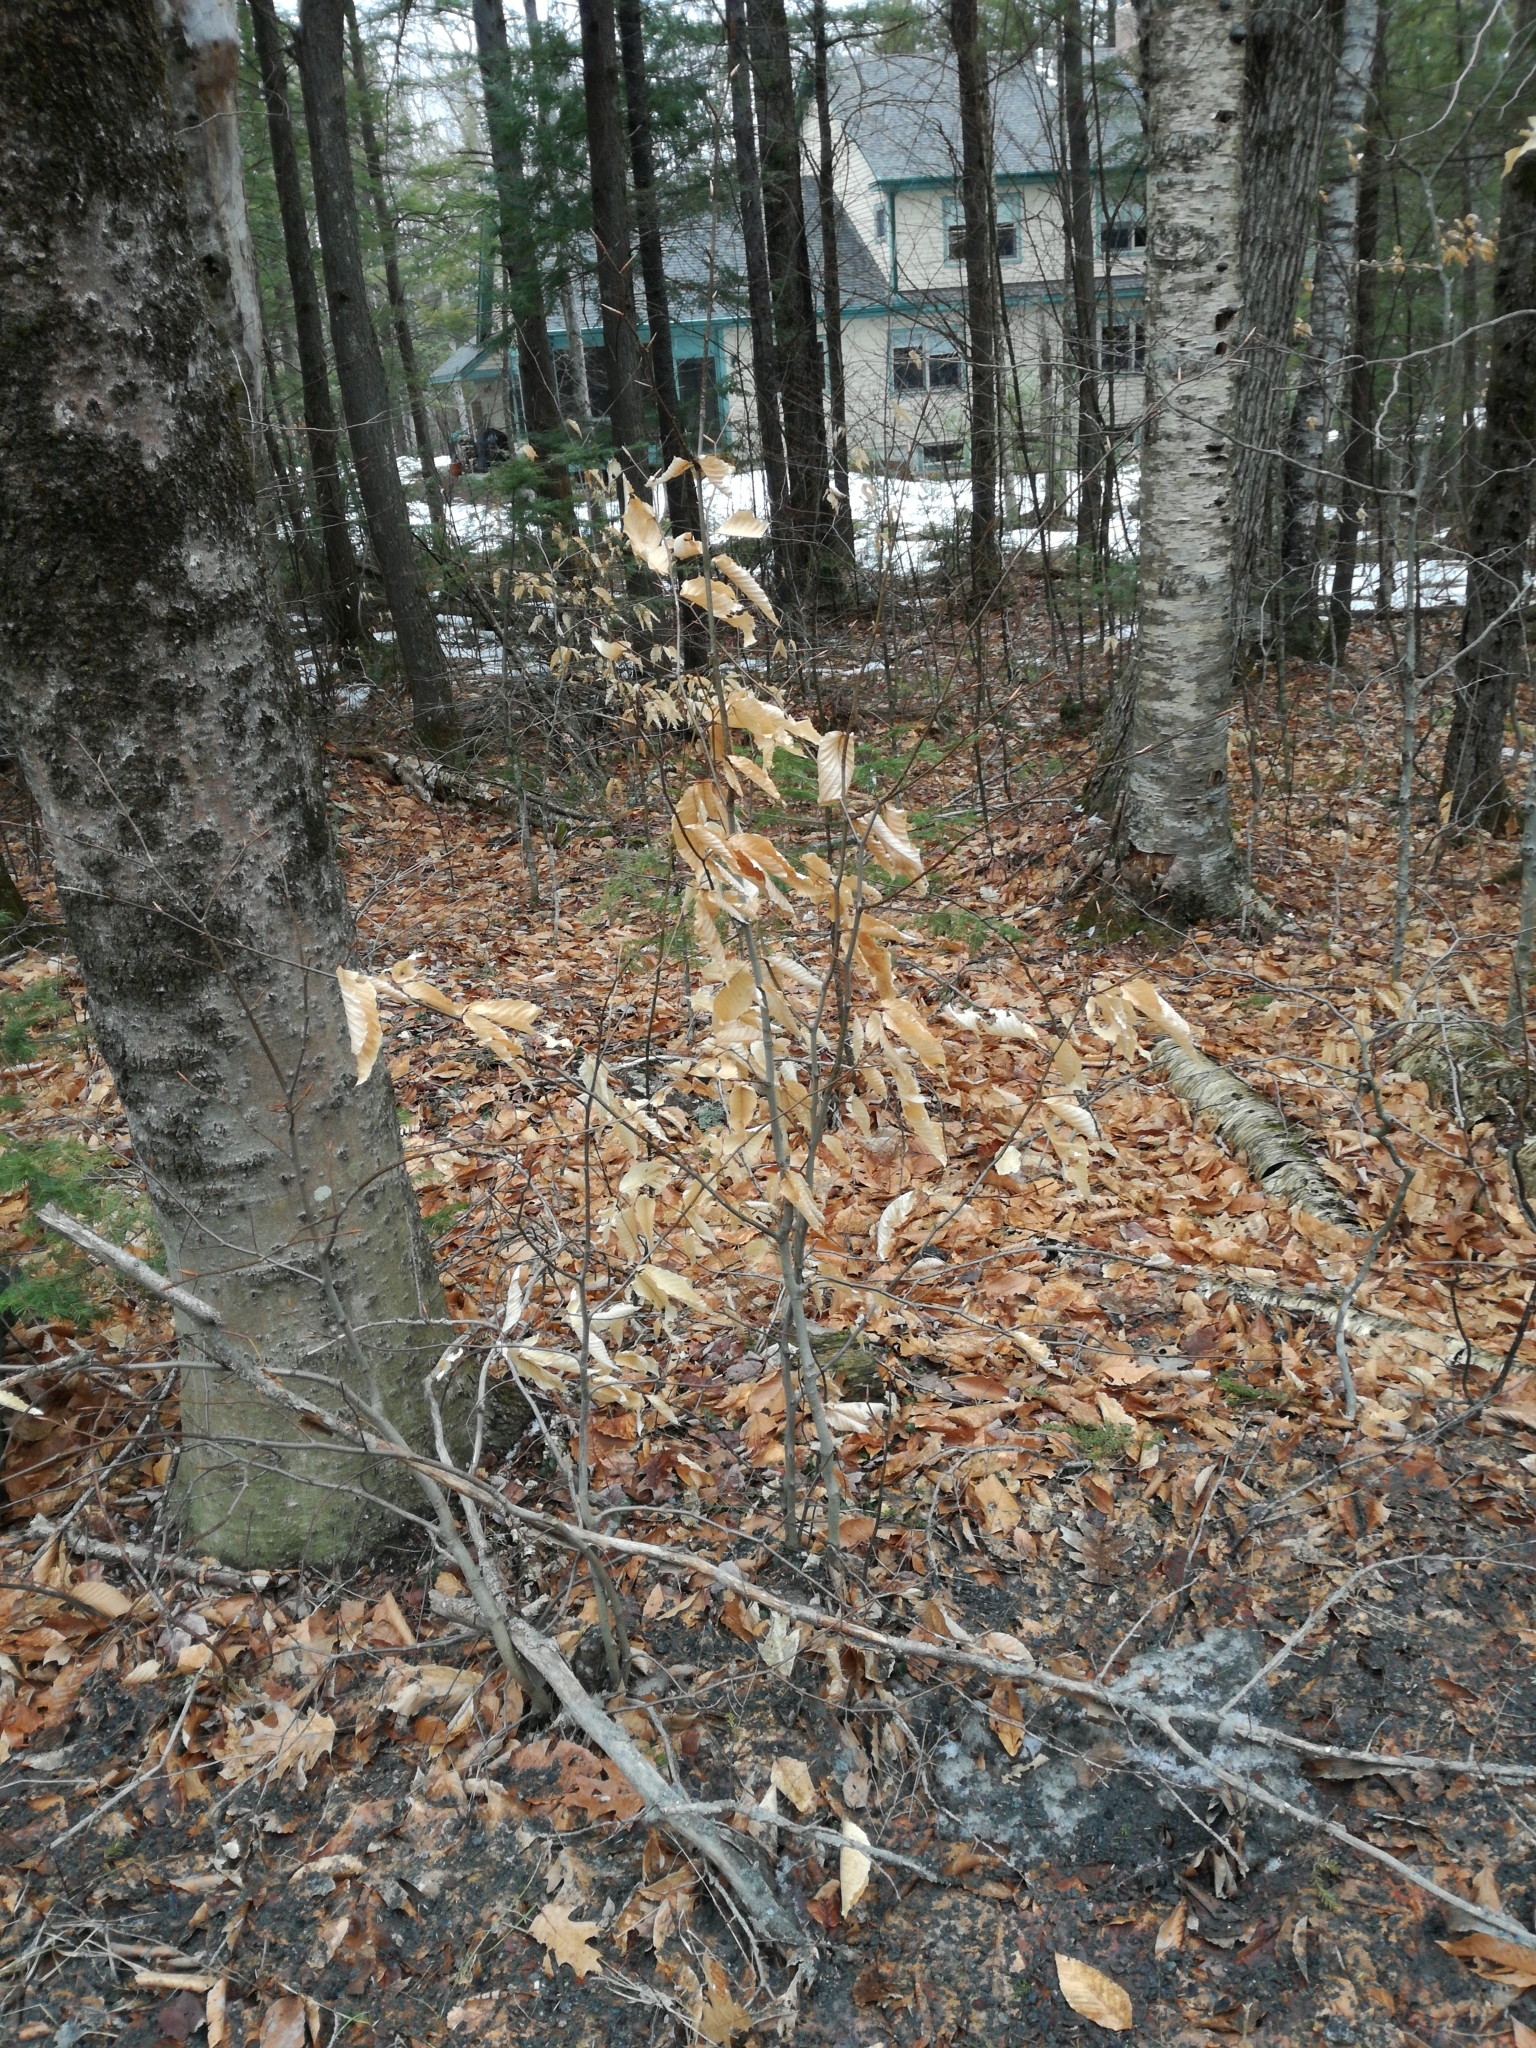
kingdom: Plantae
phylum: Tracheophyta
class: Magnoliopsida
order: Fagales
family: Fagaceae
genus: Fagus
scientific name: Fagus grandifolia
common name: American beech
